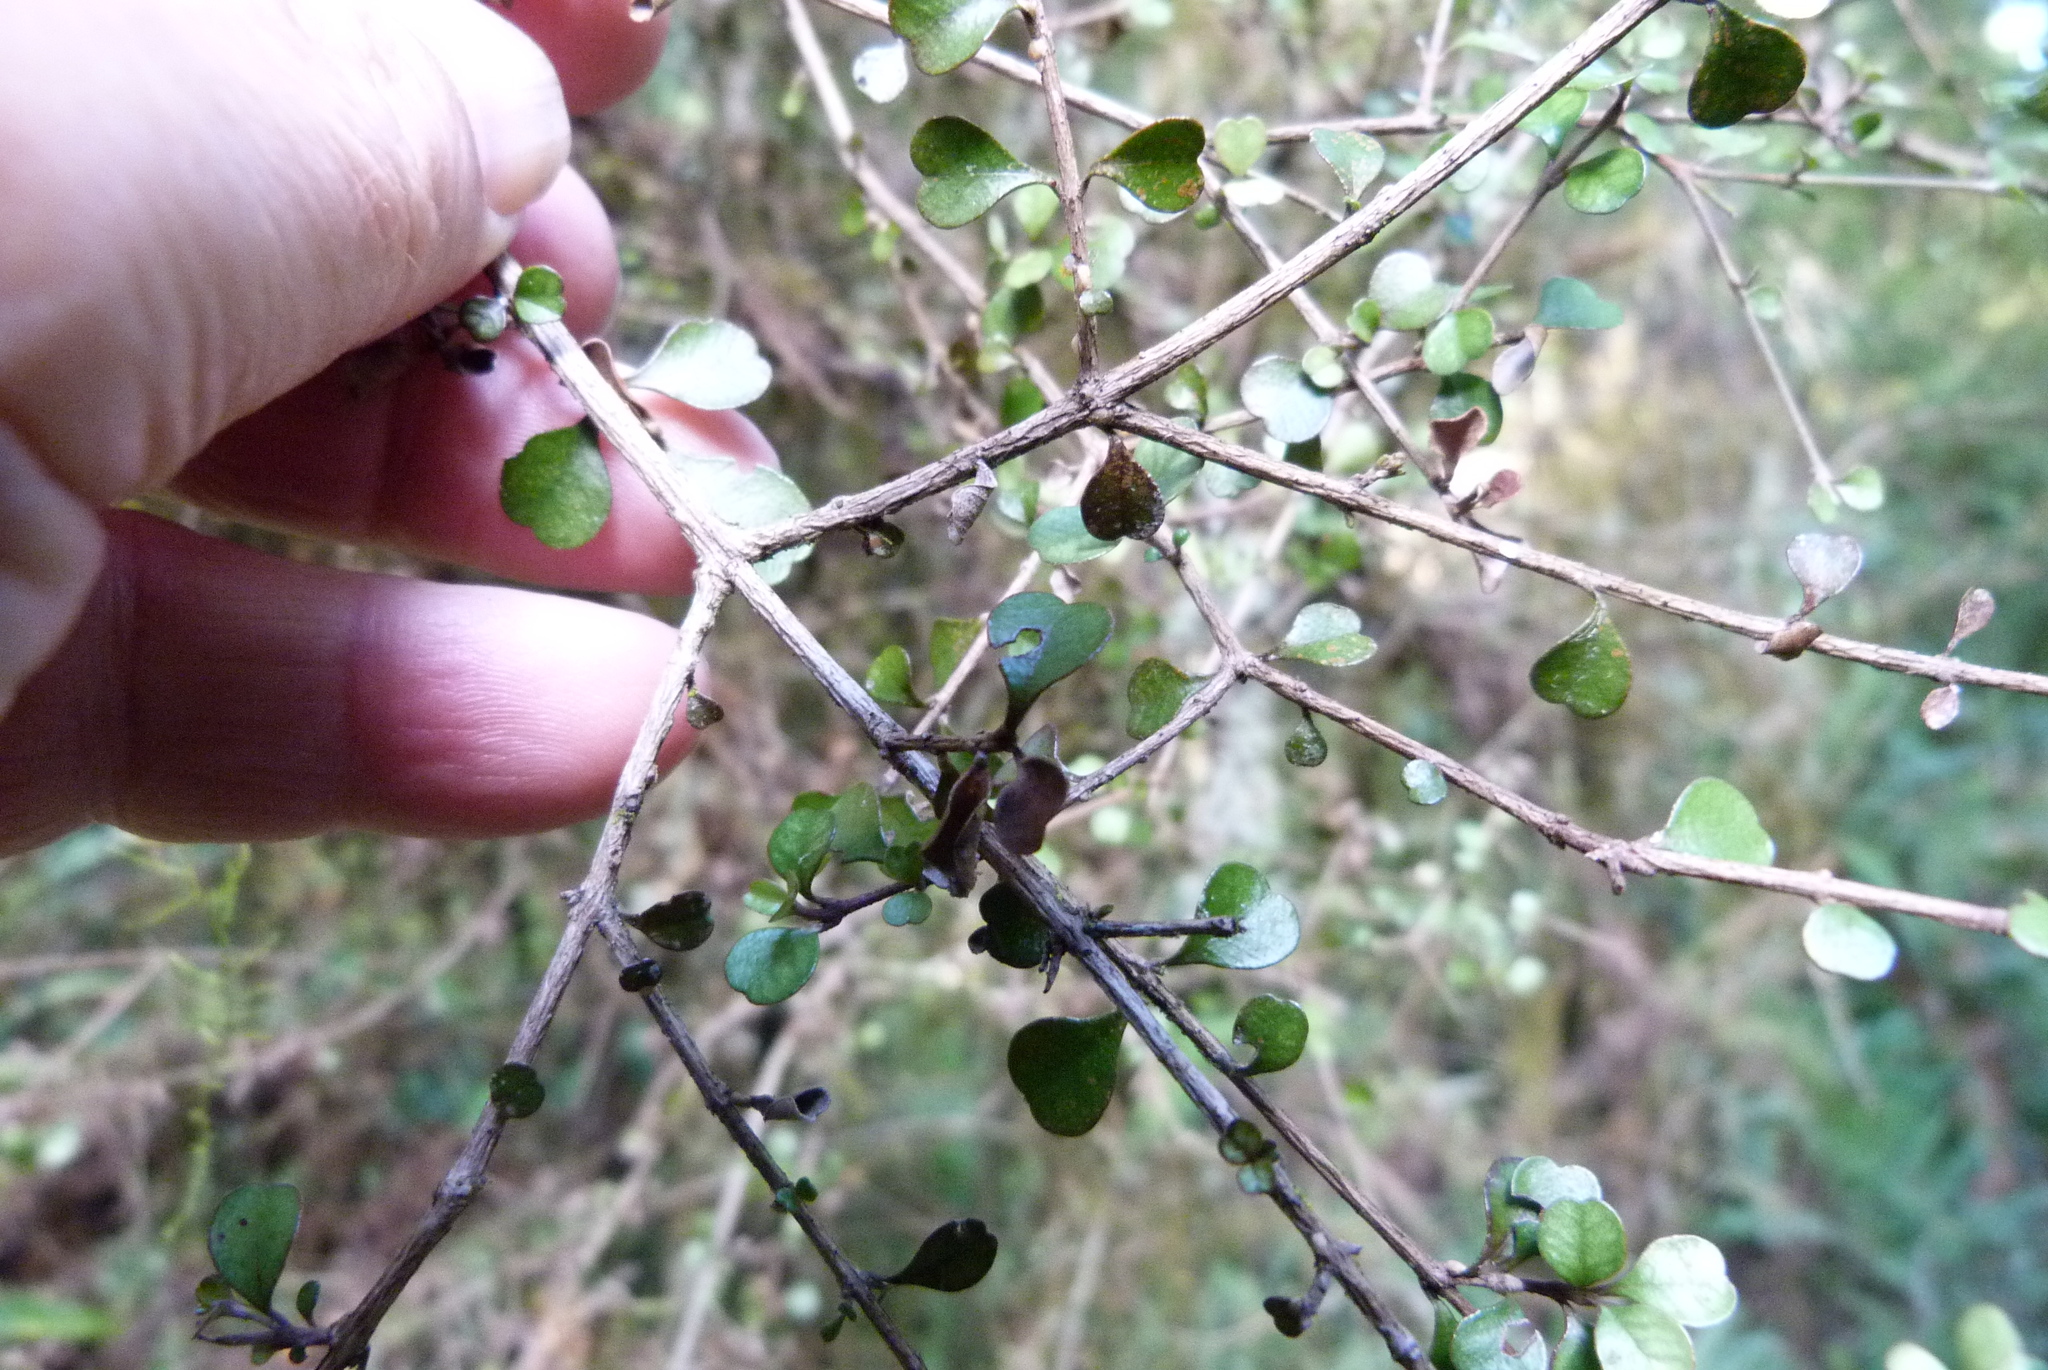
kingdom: Plantae
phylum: Tracheophyta
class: Magnoliopsida
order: Myrtales
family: Myrtaceae
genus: Lophomyrtus
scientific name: Lophomyrtus obcordata
